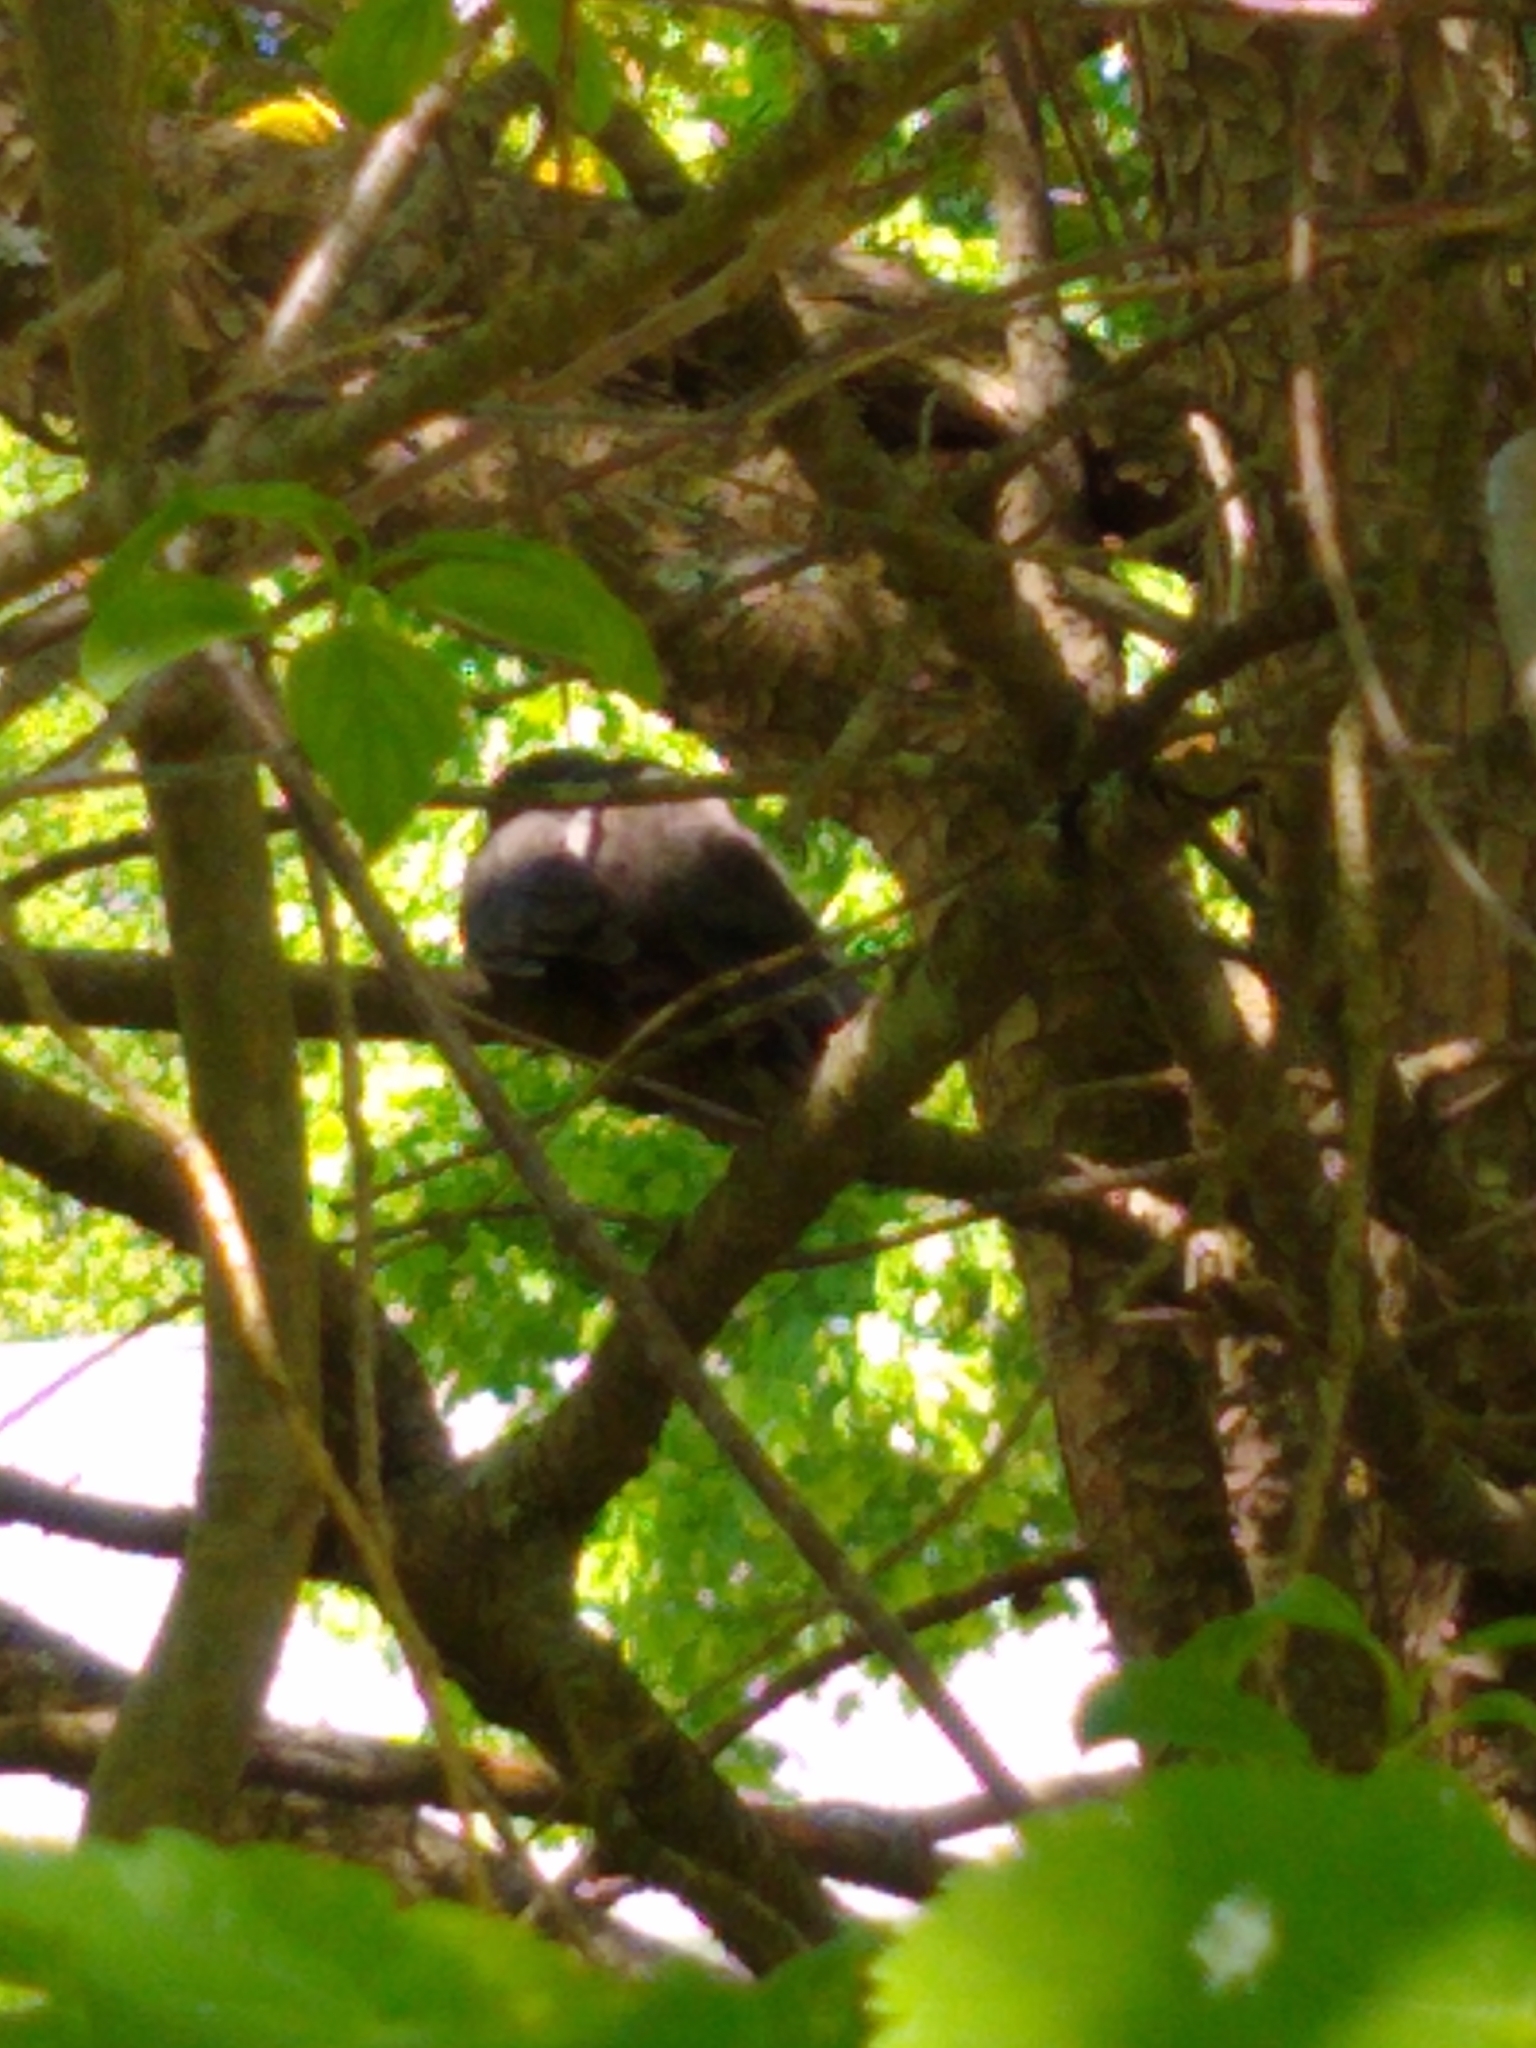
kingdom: Animalia
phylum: Chordata
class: Aves
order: Passeriformes
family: Mimidae
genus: Dumetella
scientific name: Dumetella carolinensis
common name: Gray catbird
